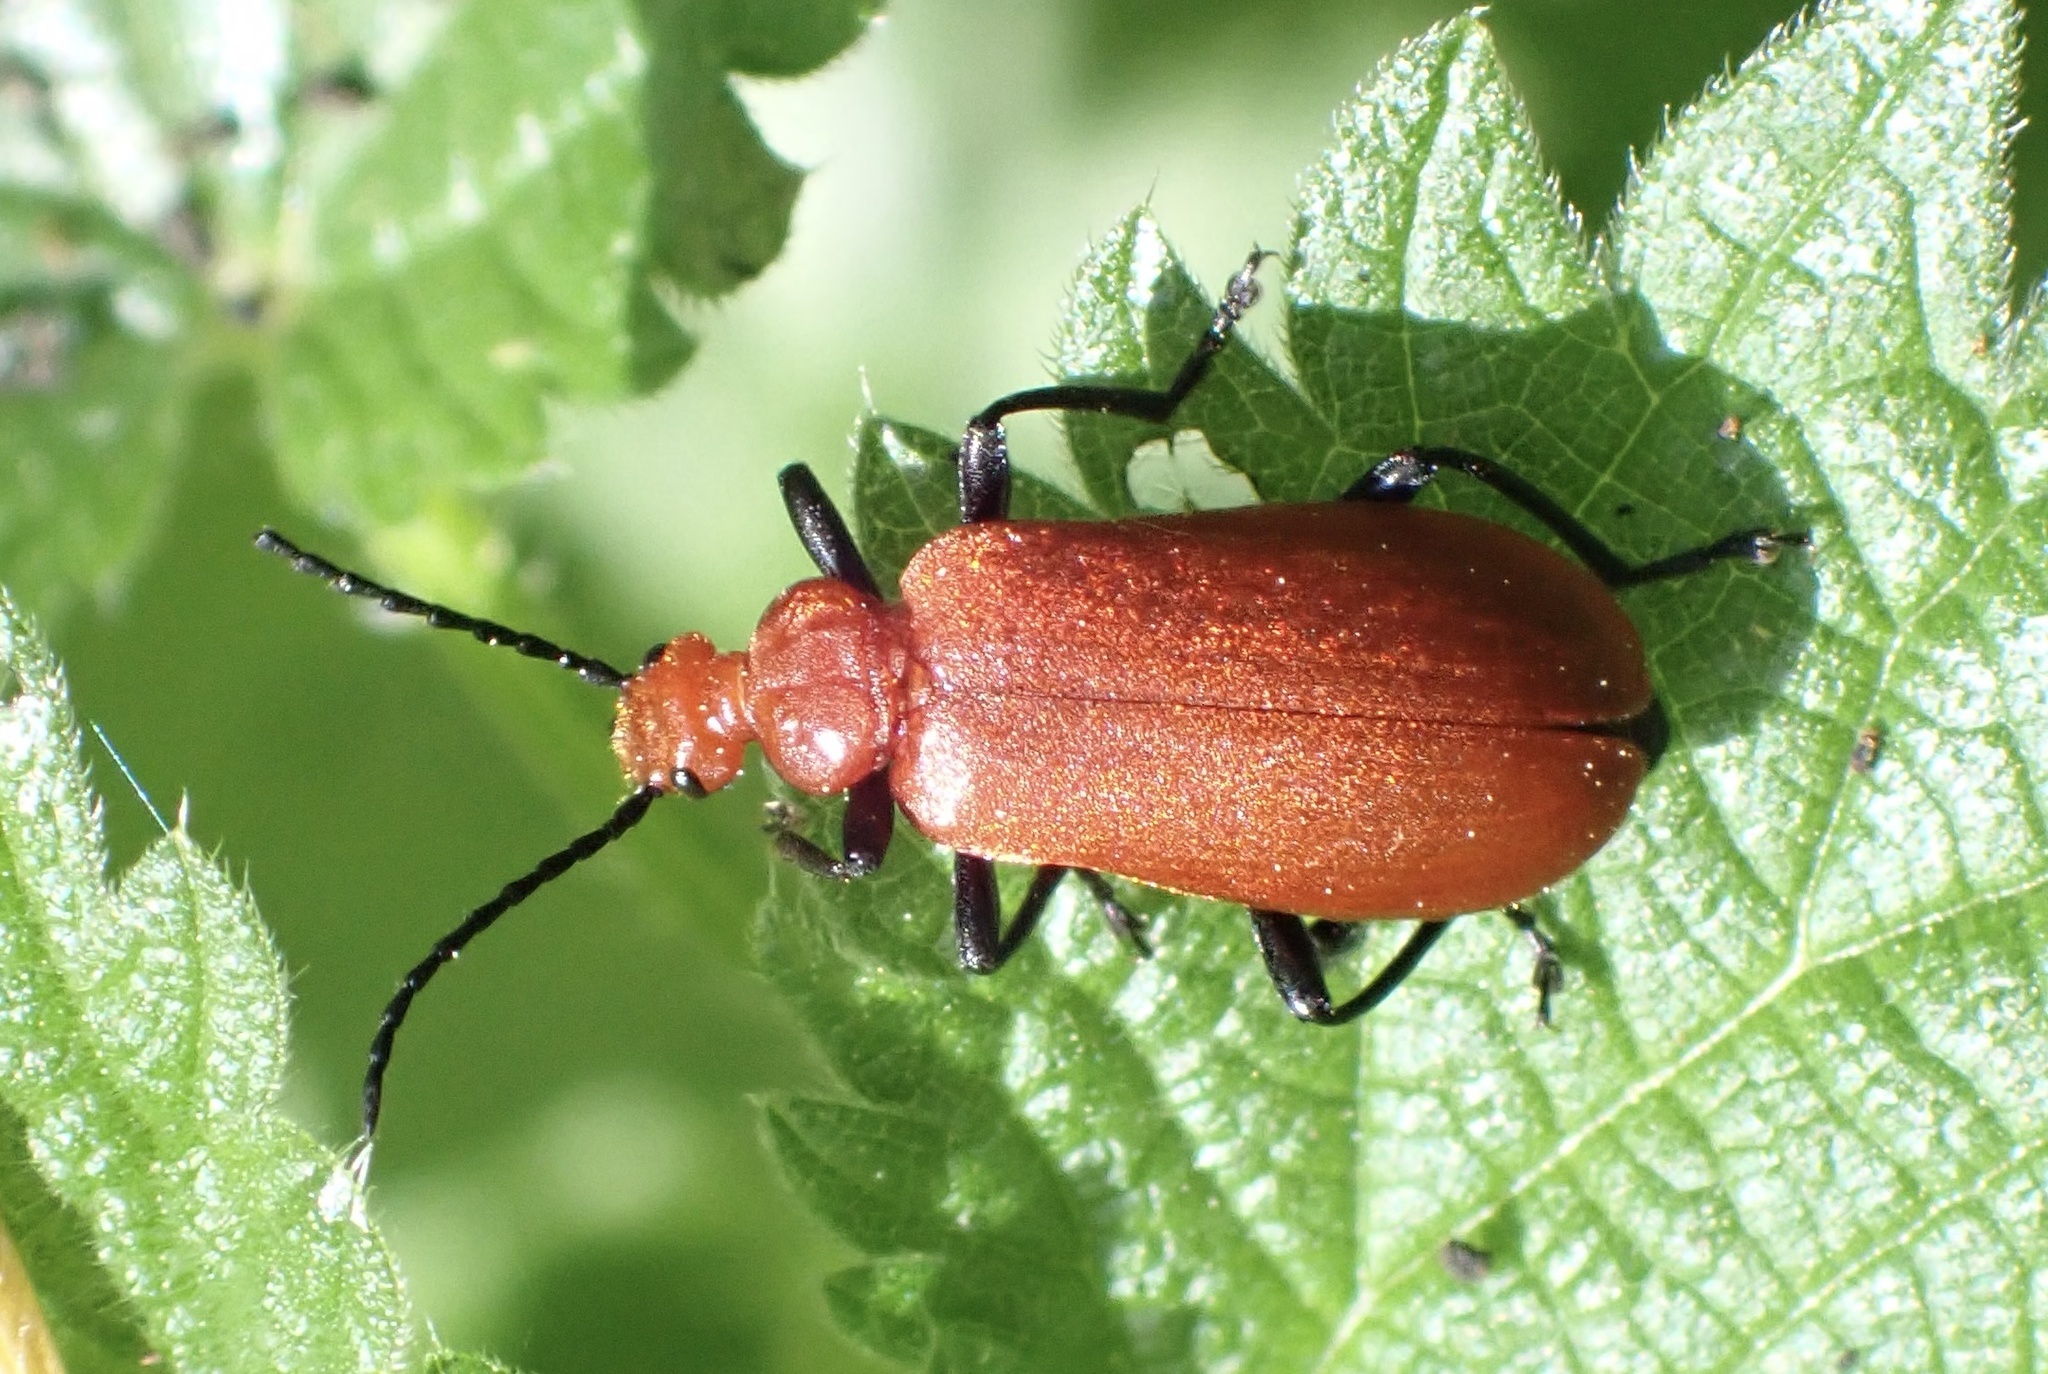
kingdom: Animalia
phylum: Arthropoda
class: Insecta
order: Coleoptera
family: Pyrochroidae
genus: Pyrochroa
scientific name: Pyrochroa serraticornis
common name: Red-headed cardinal beetle
